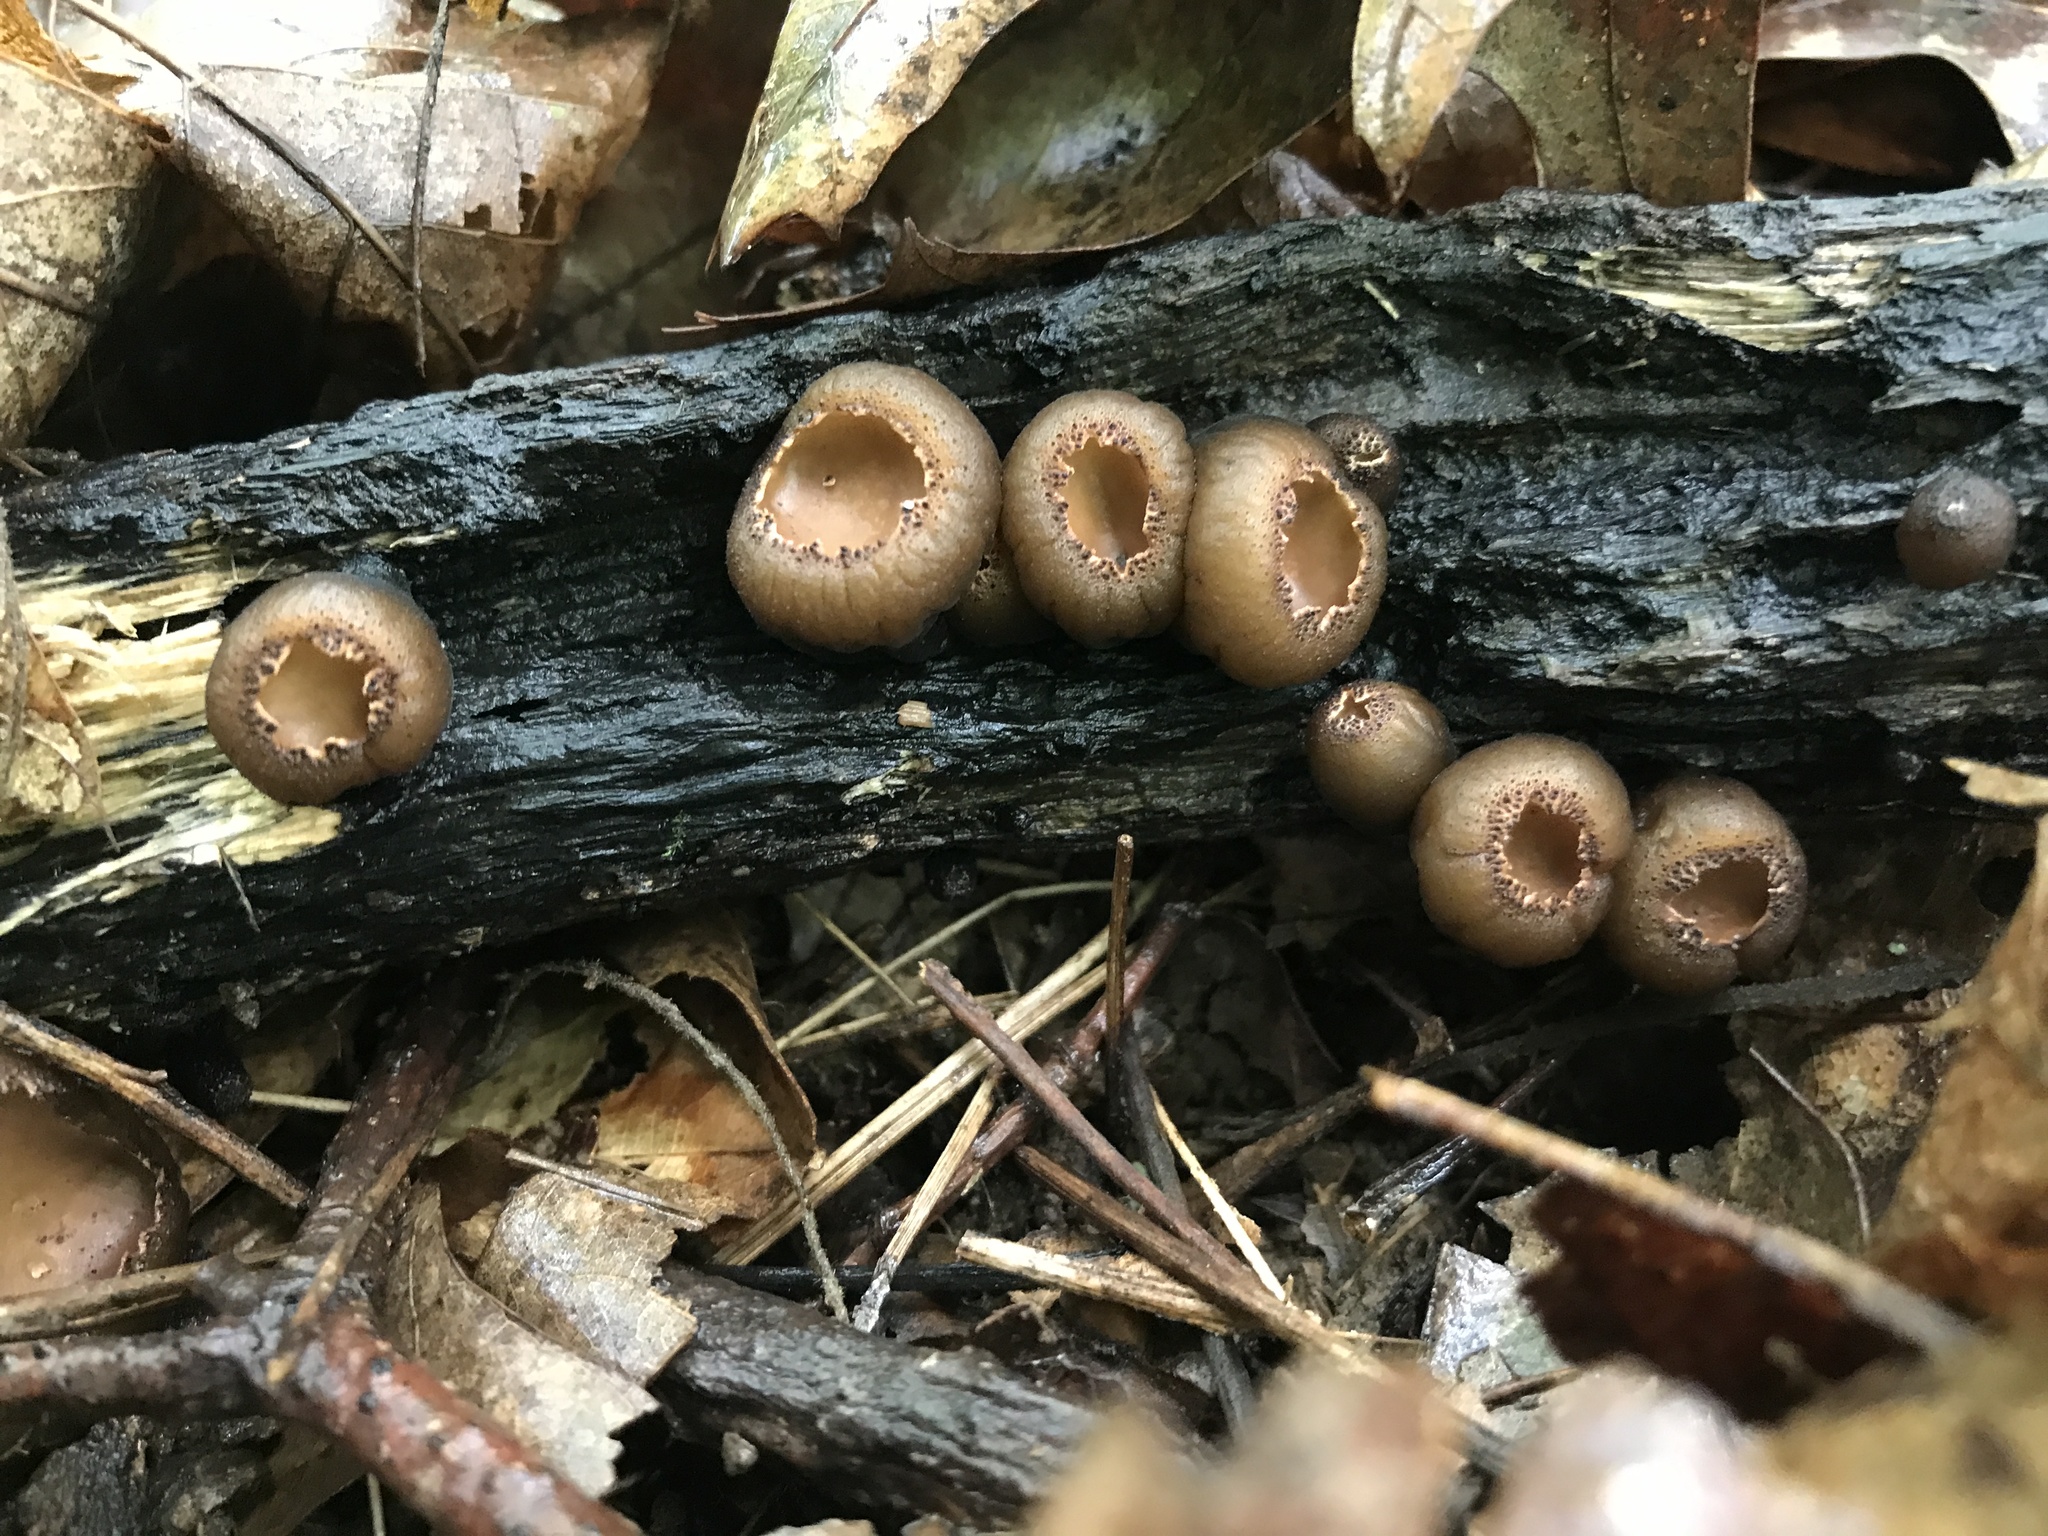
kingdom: Fungi
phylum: Ascomycota
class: Pezizomycetes
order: Pezizales
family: Sarcosomataceae
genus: Galiella
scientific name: Galiella rufa
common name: Hairy rubber cup
